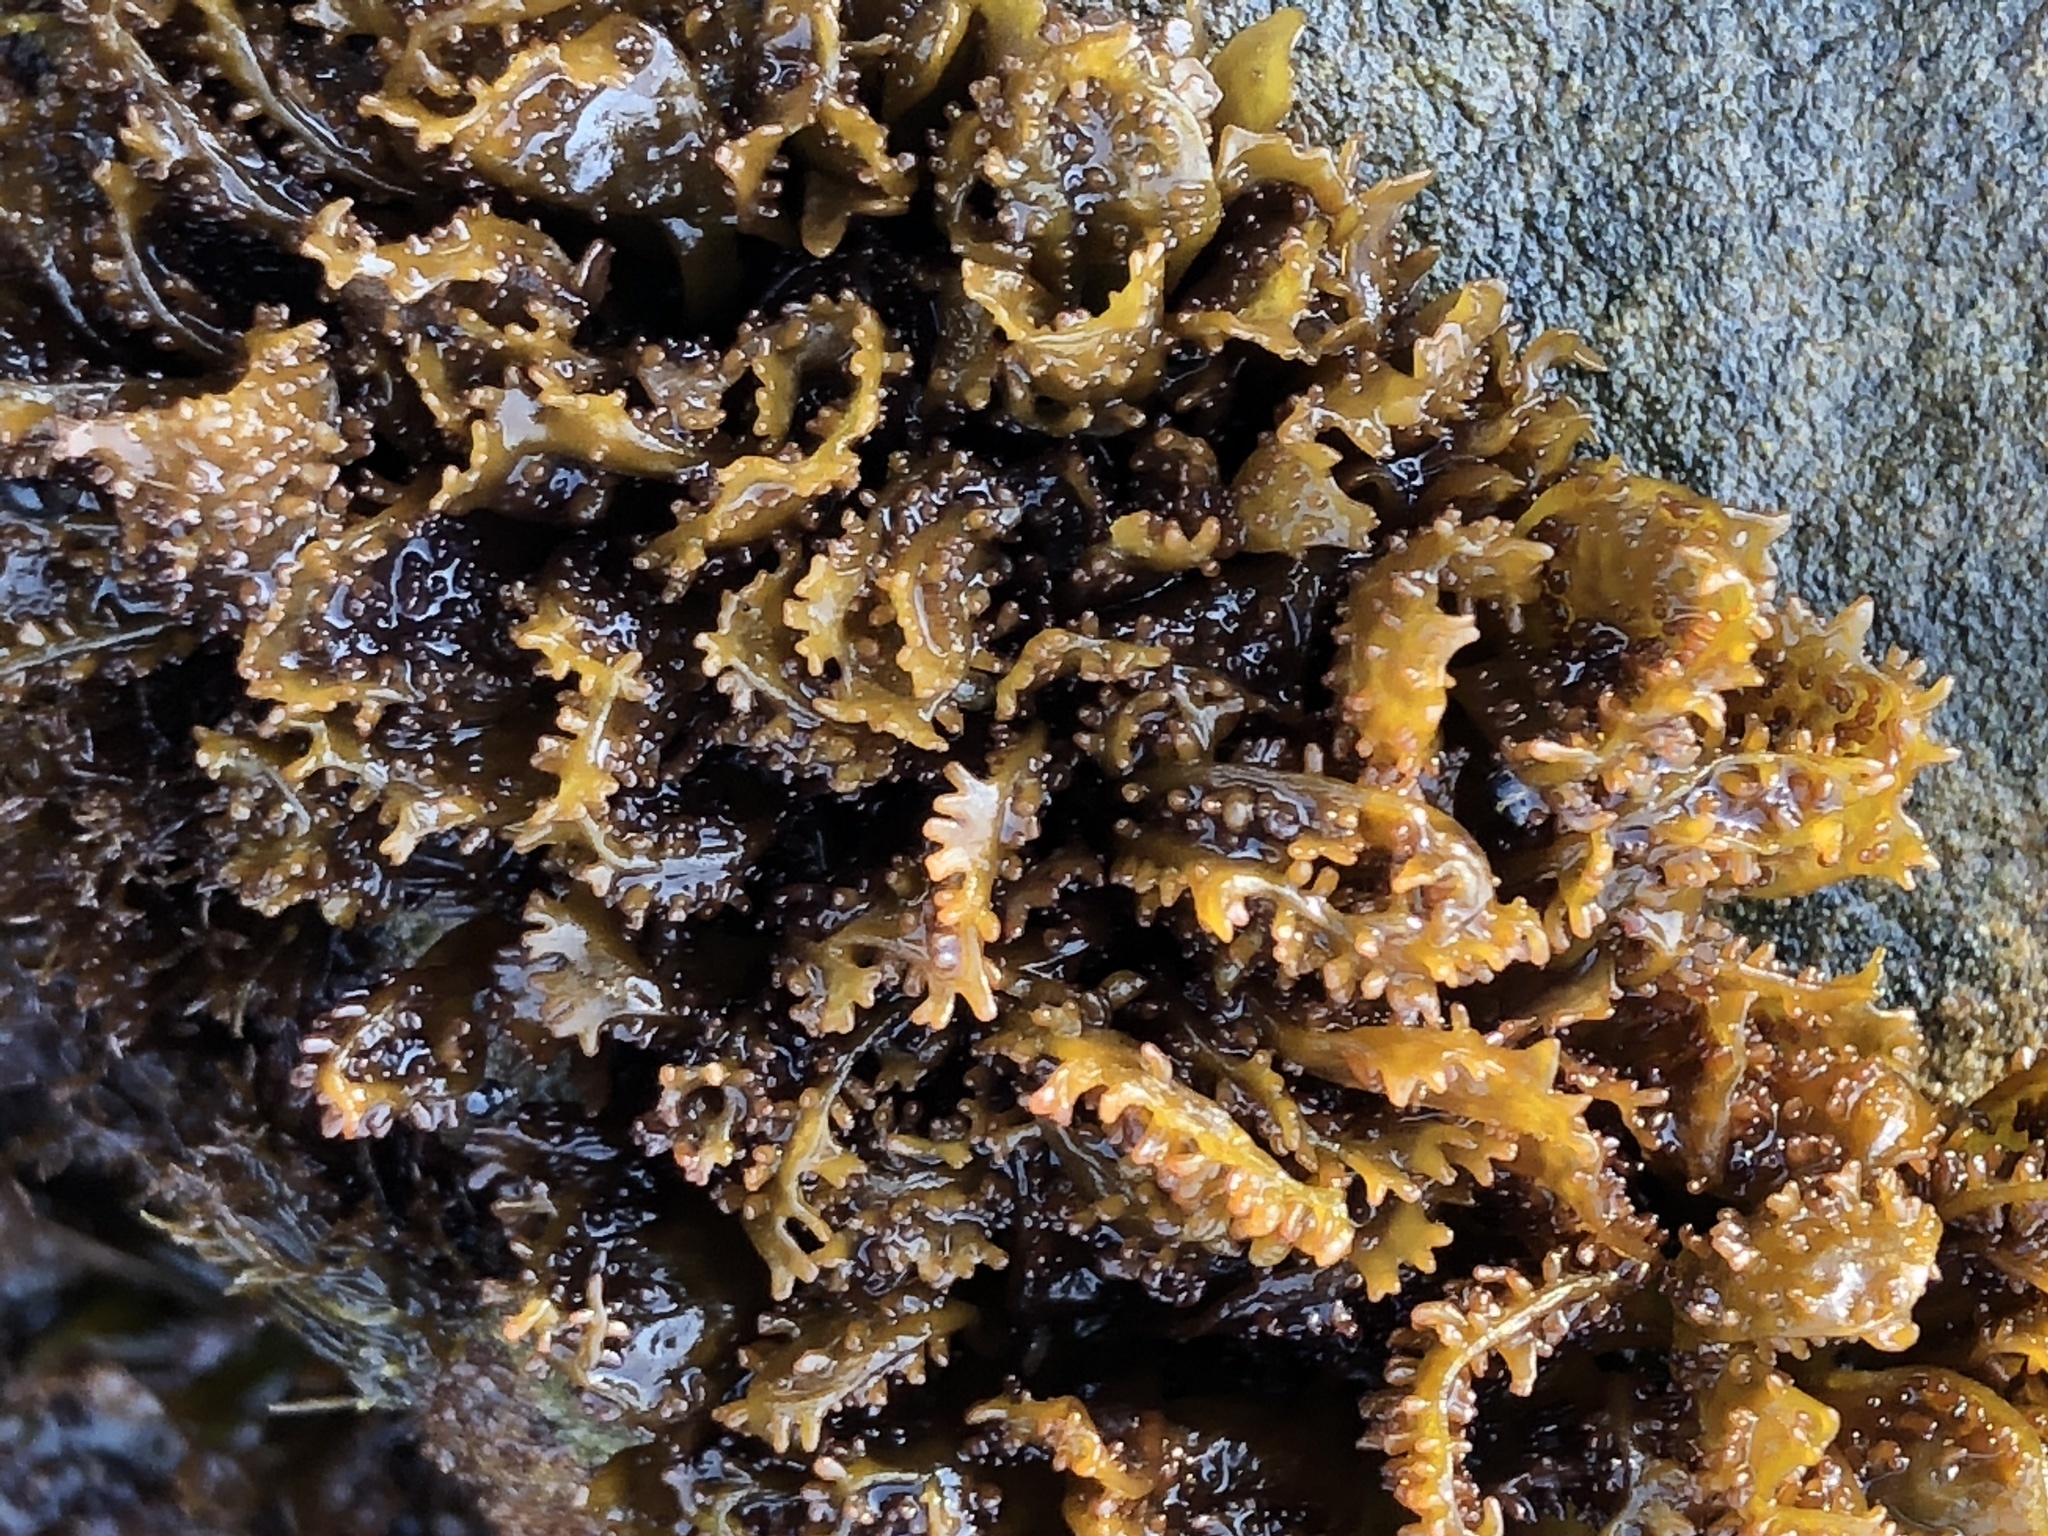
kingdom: Plantae
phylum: Rhodophyta
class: Florideophyceae
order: Gigartinales
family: Phyllophoraceae
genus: Mastocarpus
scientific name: Mastocarpus papillatus
